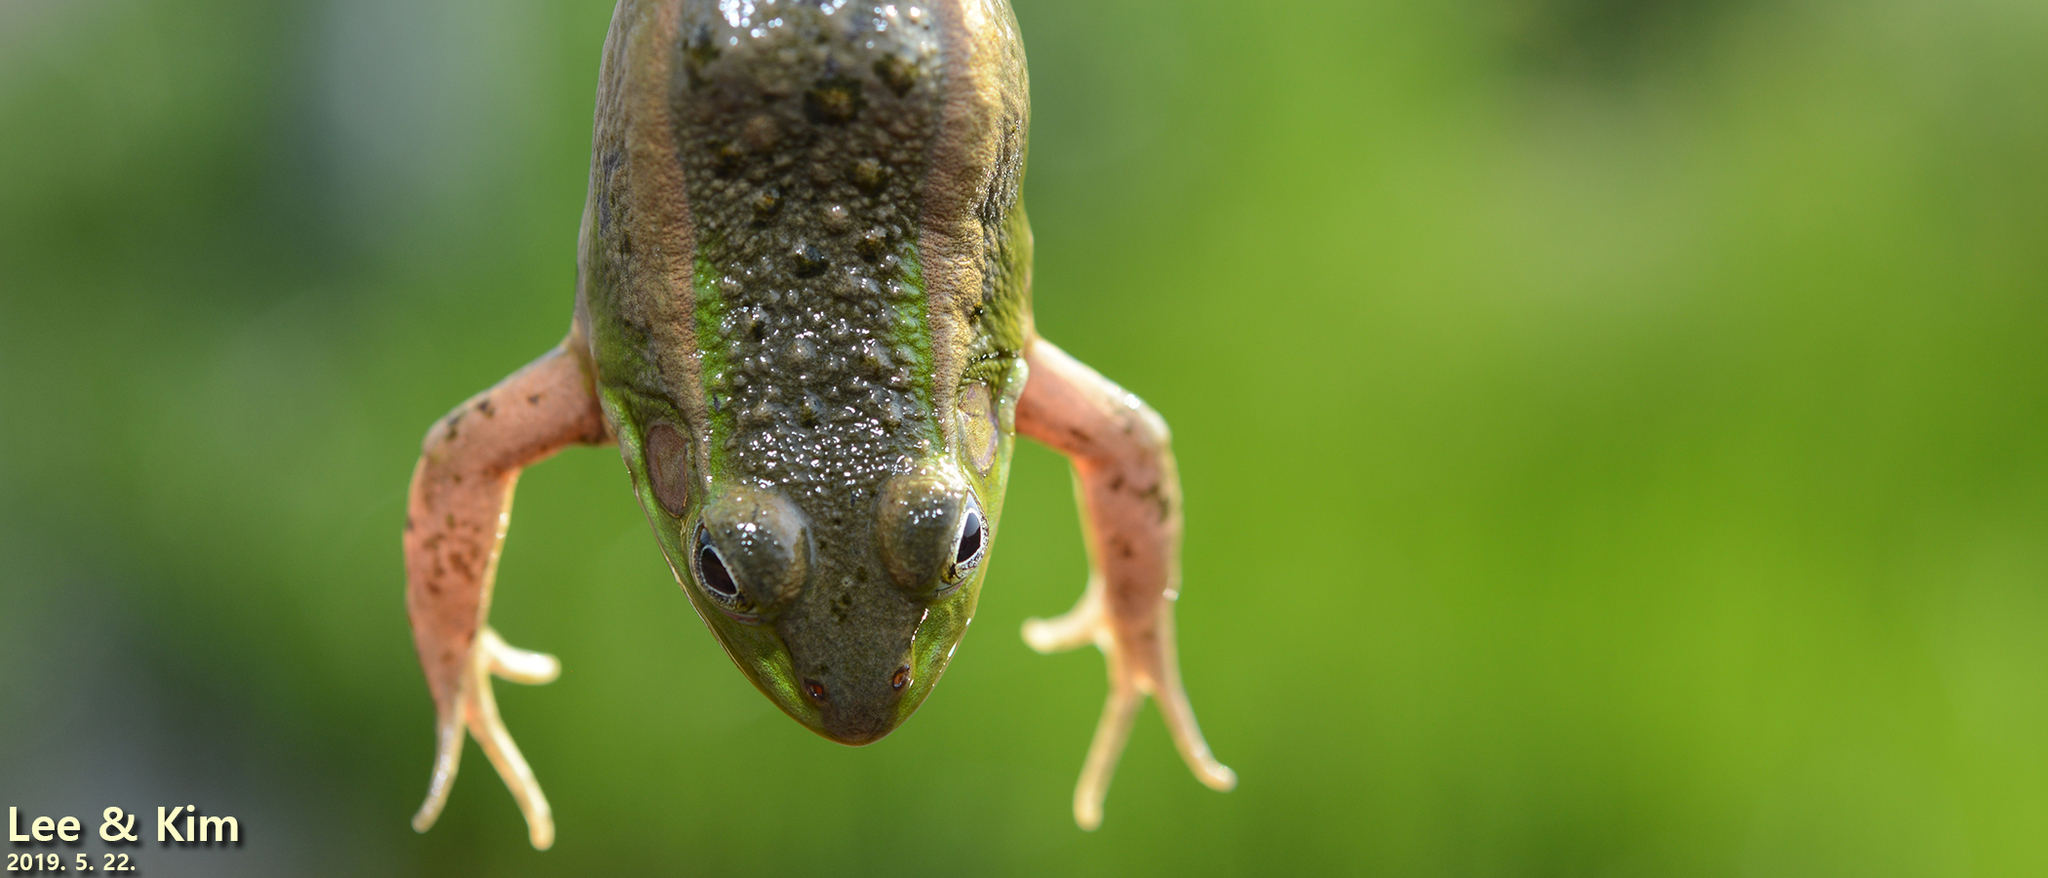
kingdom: Animalia
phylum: Chordata
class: Amphibia
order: Anura
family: Ranidae
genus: Pelophylax
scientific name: Pelophylax chosenicus
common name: Gold-spotted pond frog
